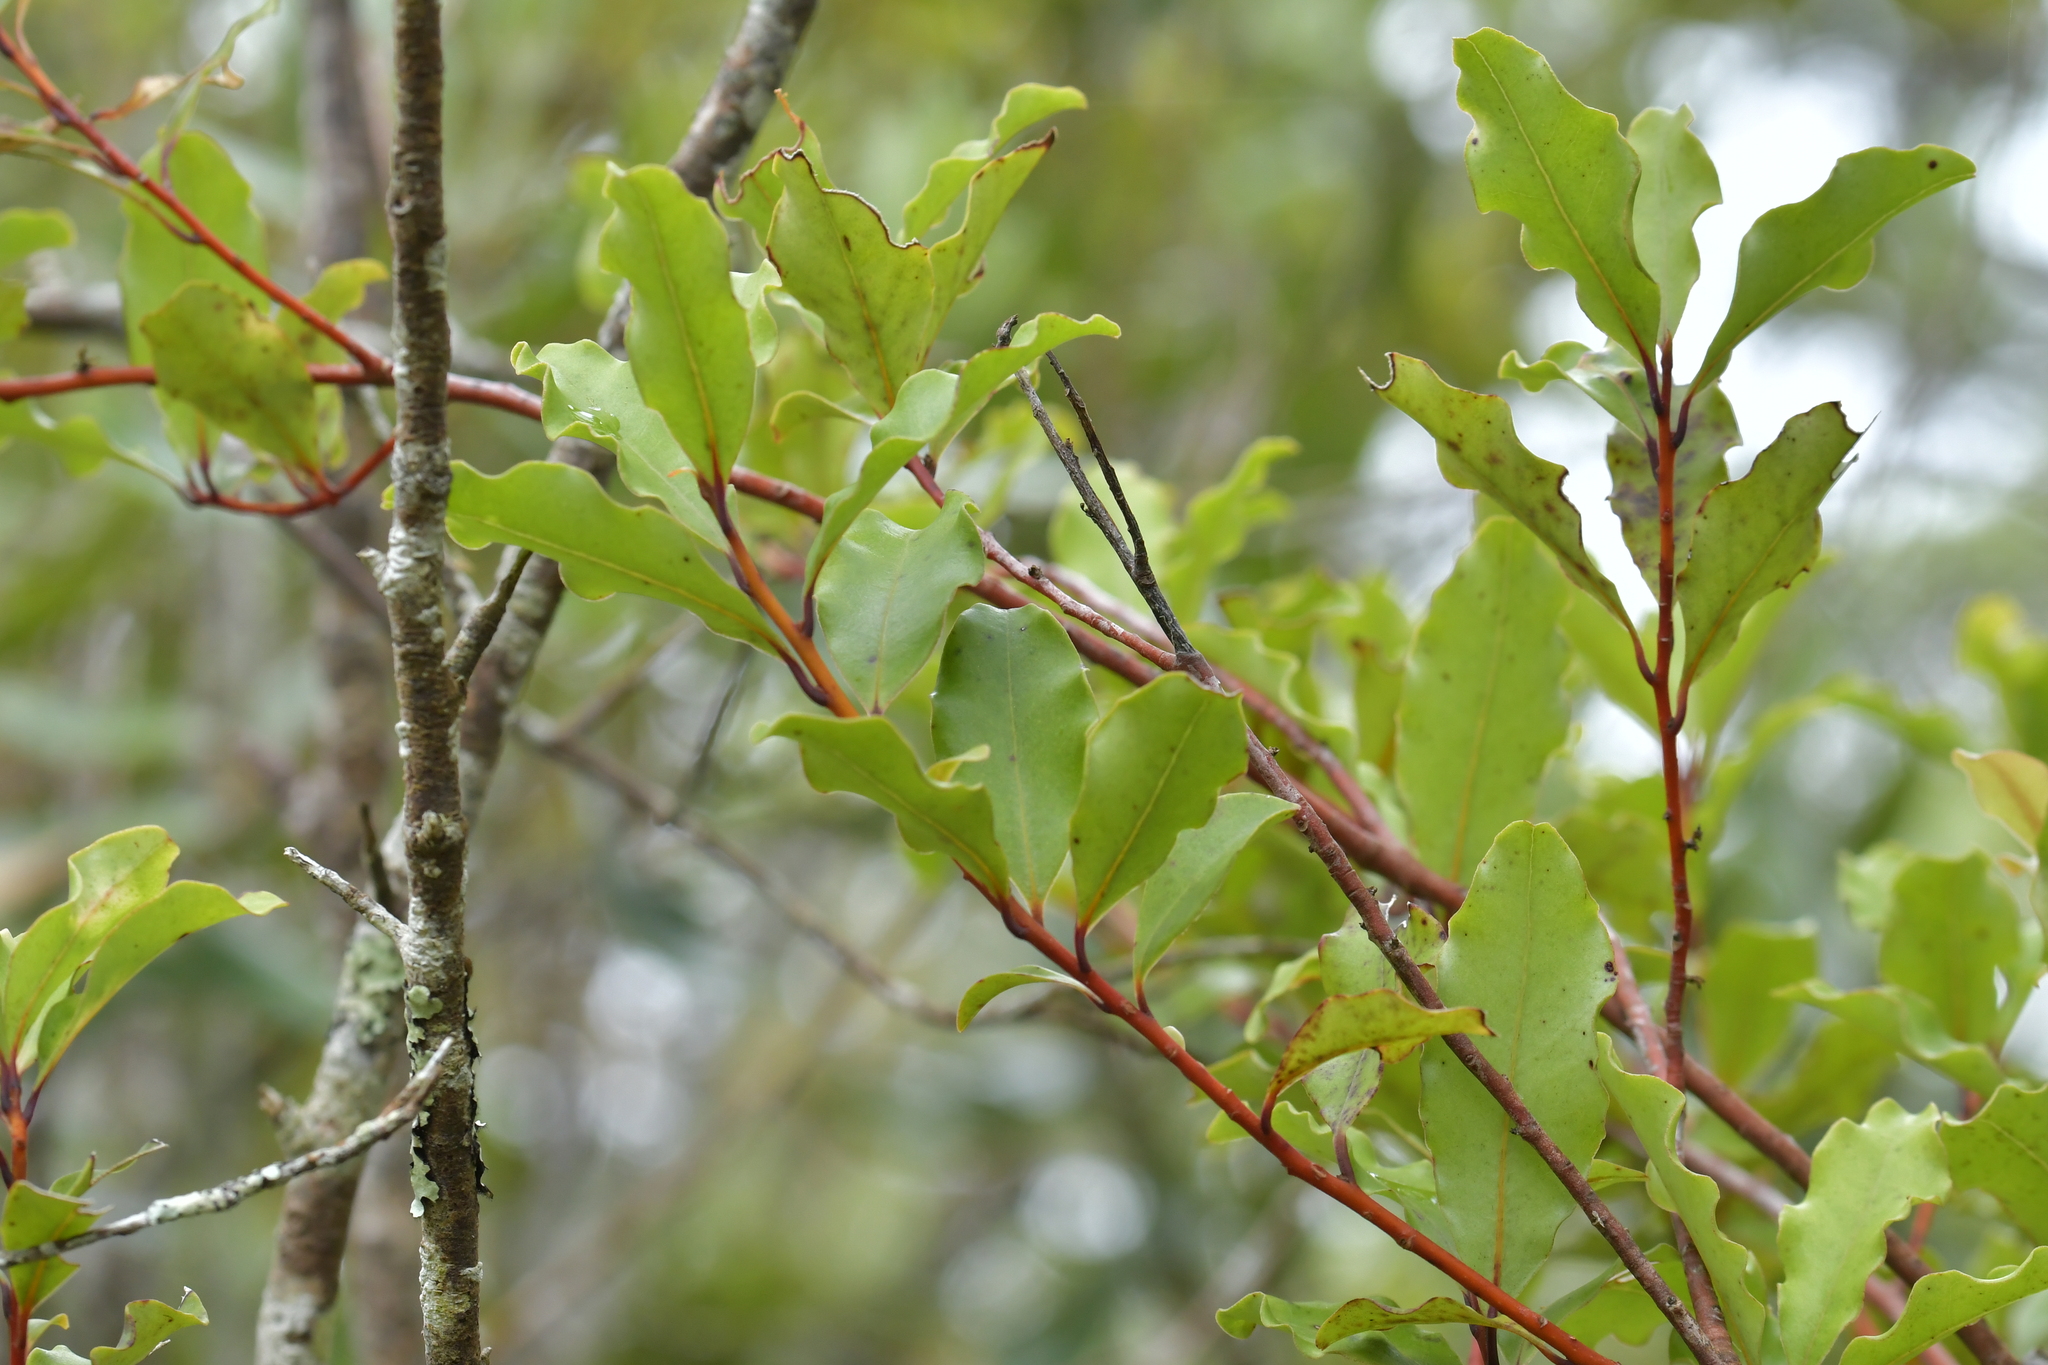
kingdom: Plantae
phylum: Tracheophyta
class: Magnoliopsida
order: Ericales
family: Primulaceae
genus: Myrsine
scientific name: Myrsine australis
